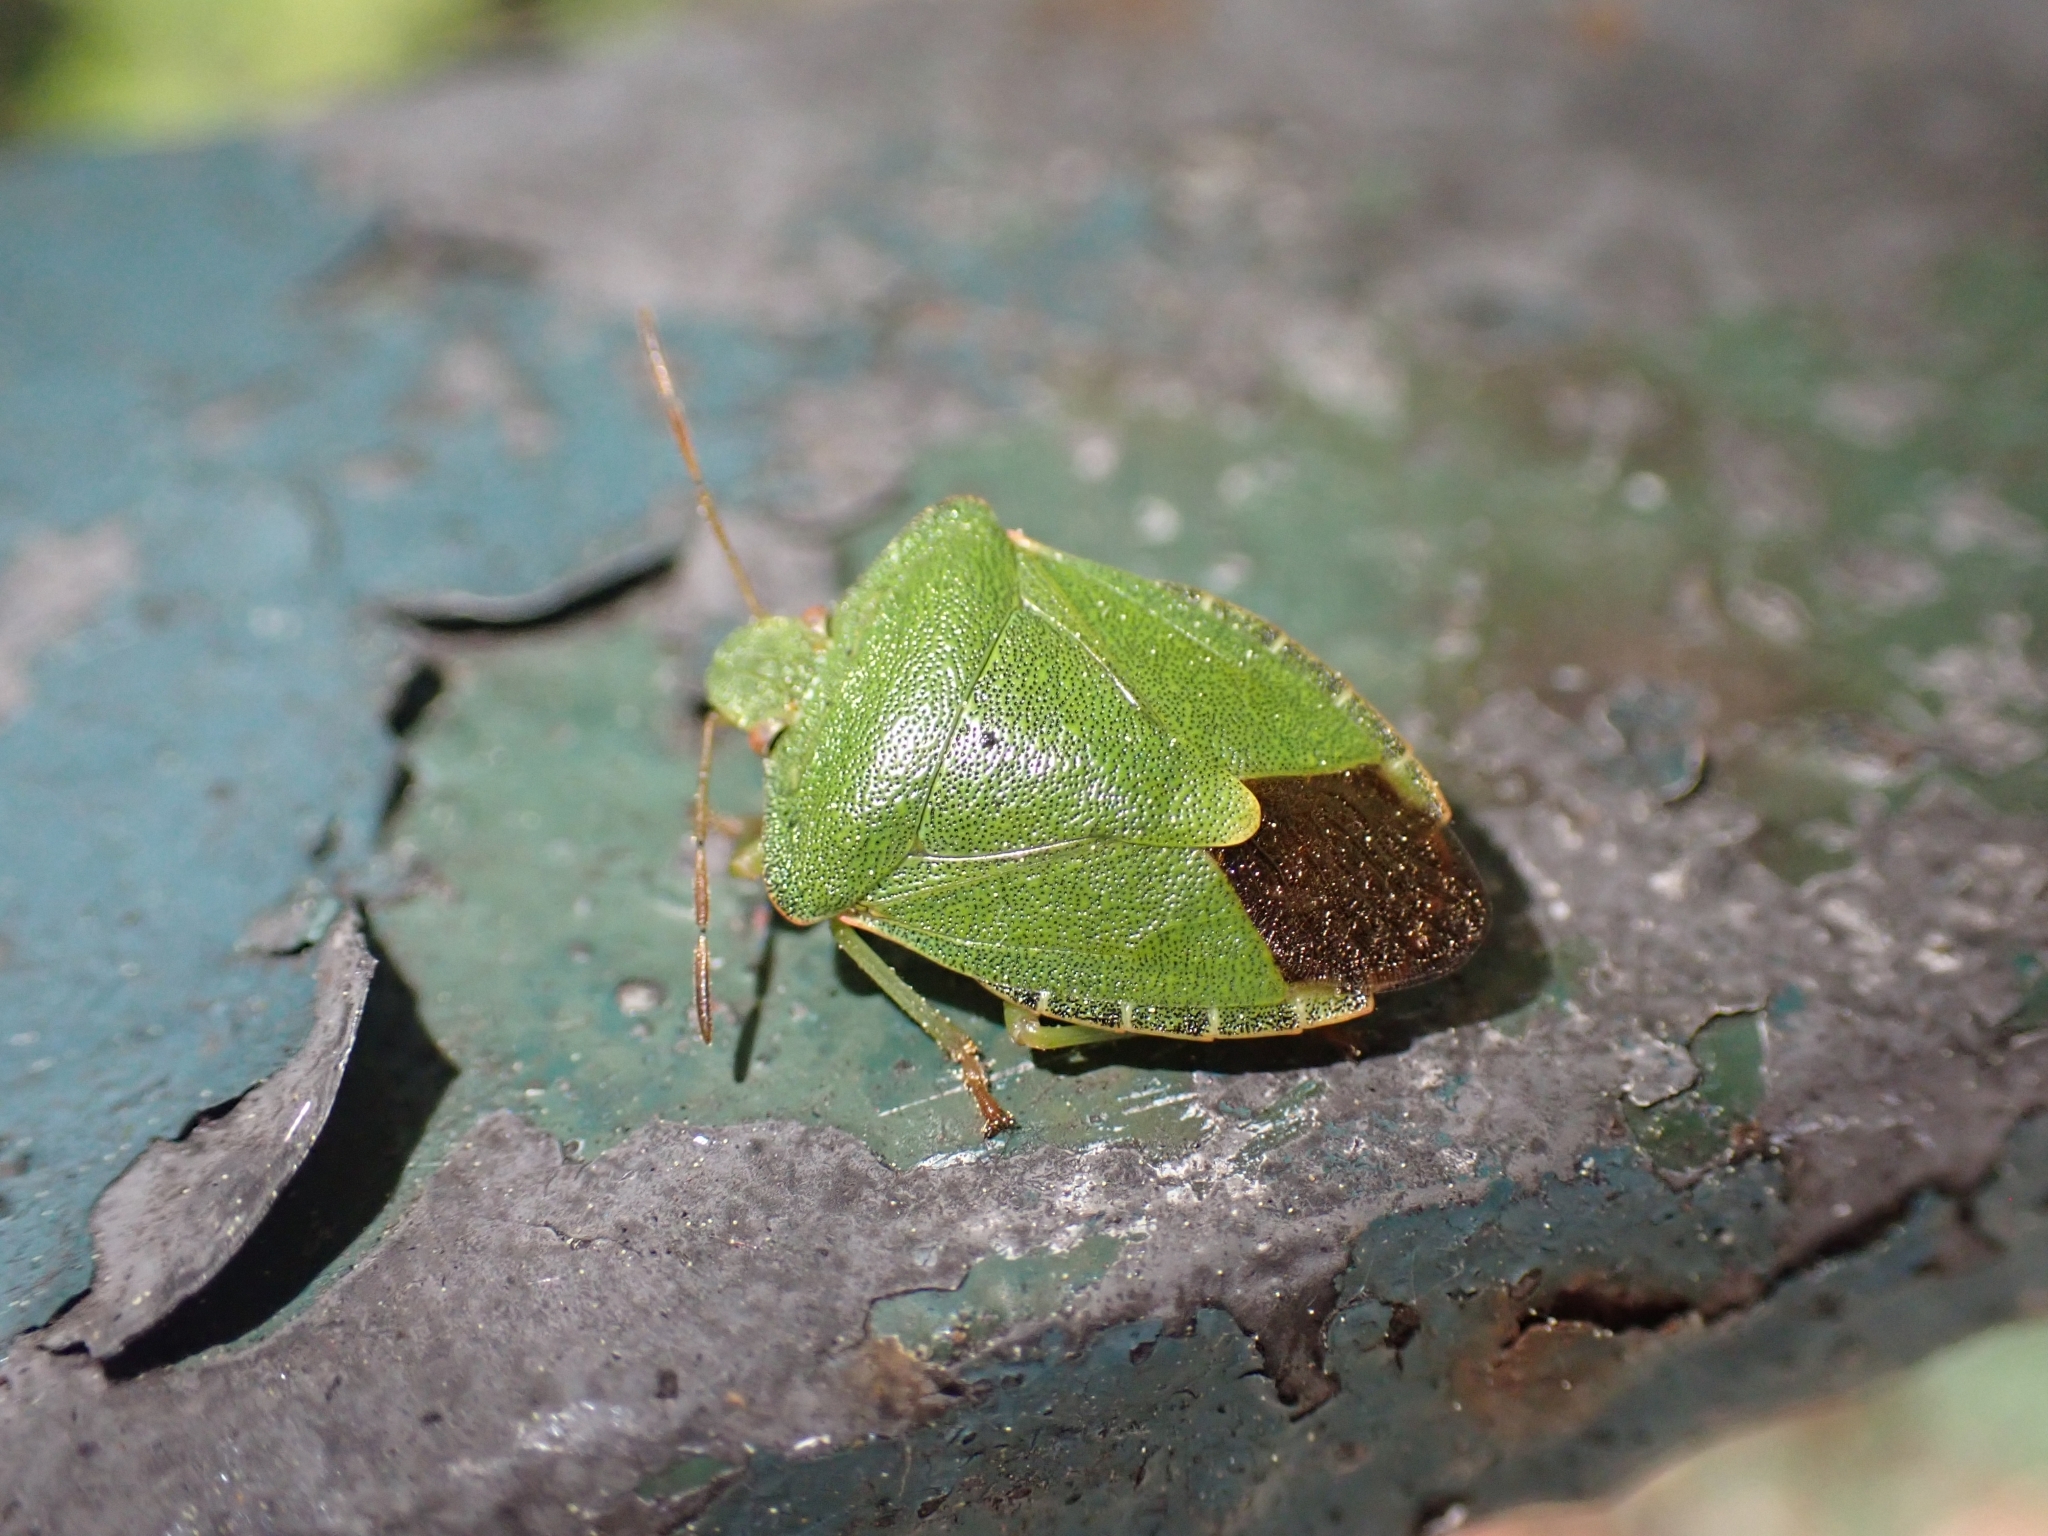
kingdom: Animalia
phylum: Arthropoda
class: Insecta
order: Hemiptera
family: Pentatomidae
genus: Palomena
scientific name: Palomena prasina
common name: Green shieldbug
